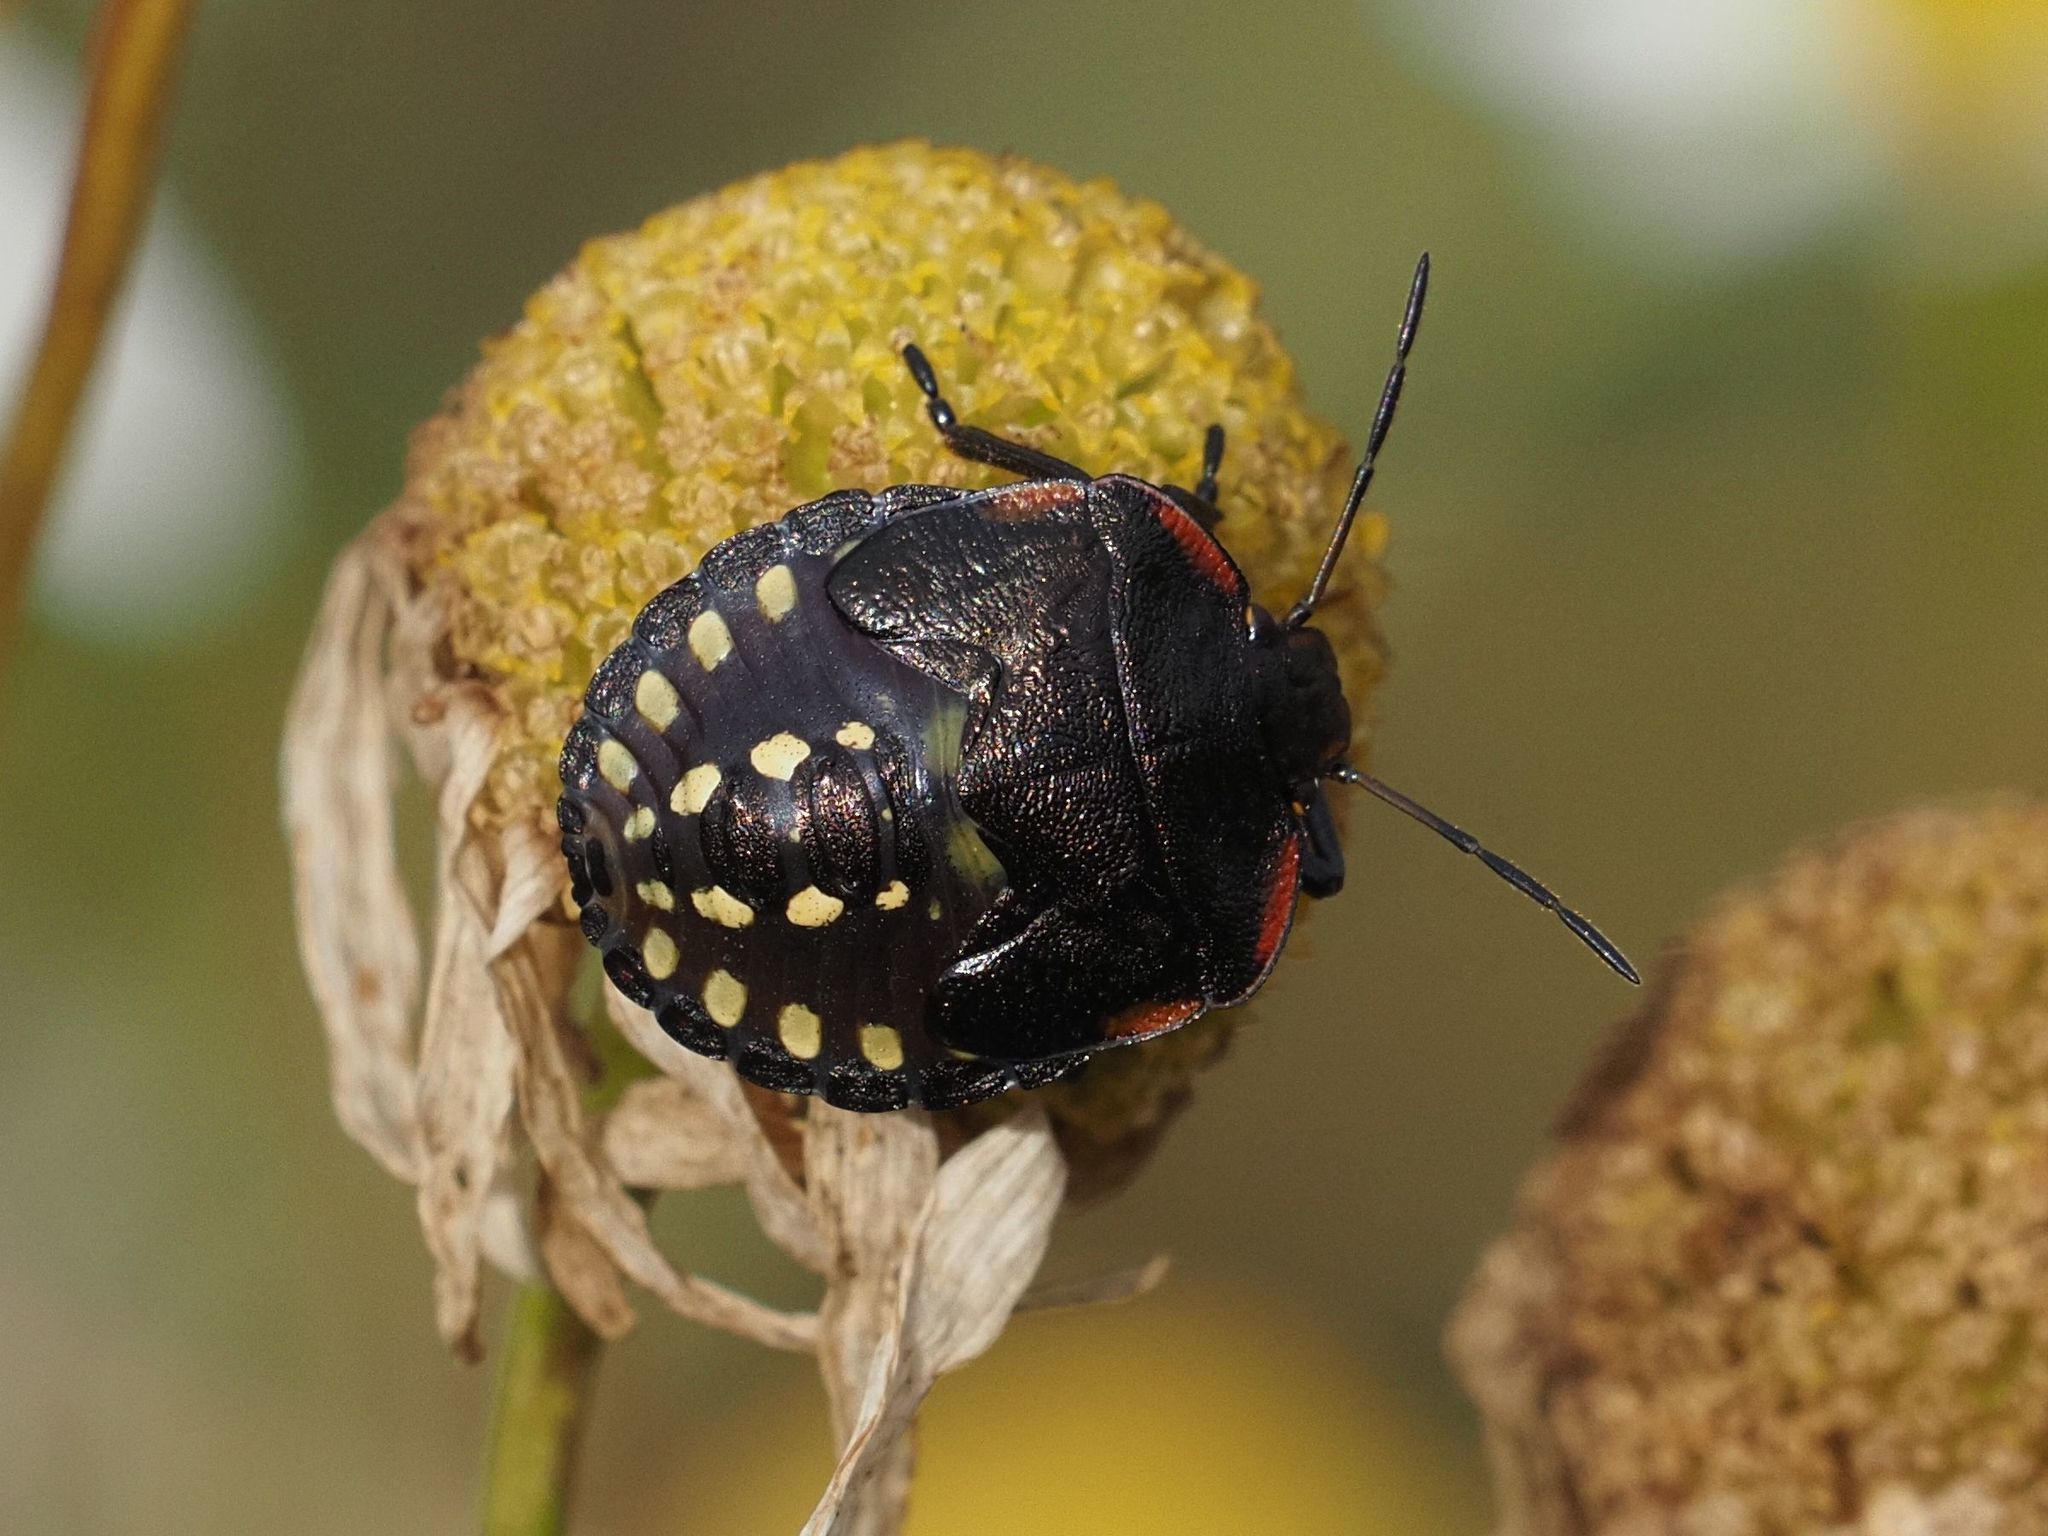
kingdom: Animalia
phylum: Arthropoda
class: Insecta
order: Hemiptera
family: Pentatomidae
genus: Nezara
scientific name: Nezara viridula
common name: Southern green stink bug
